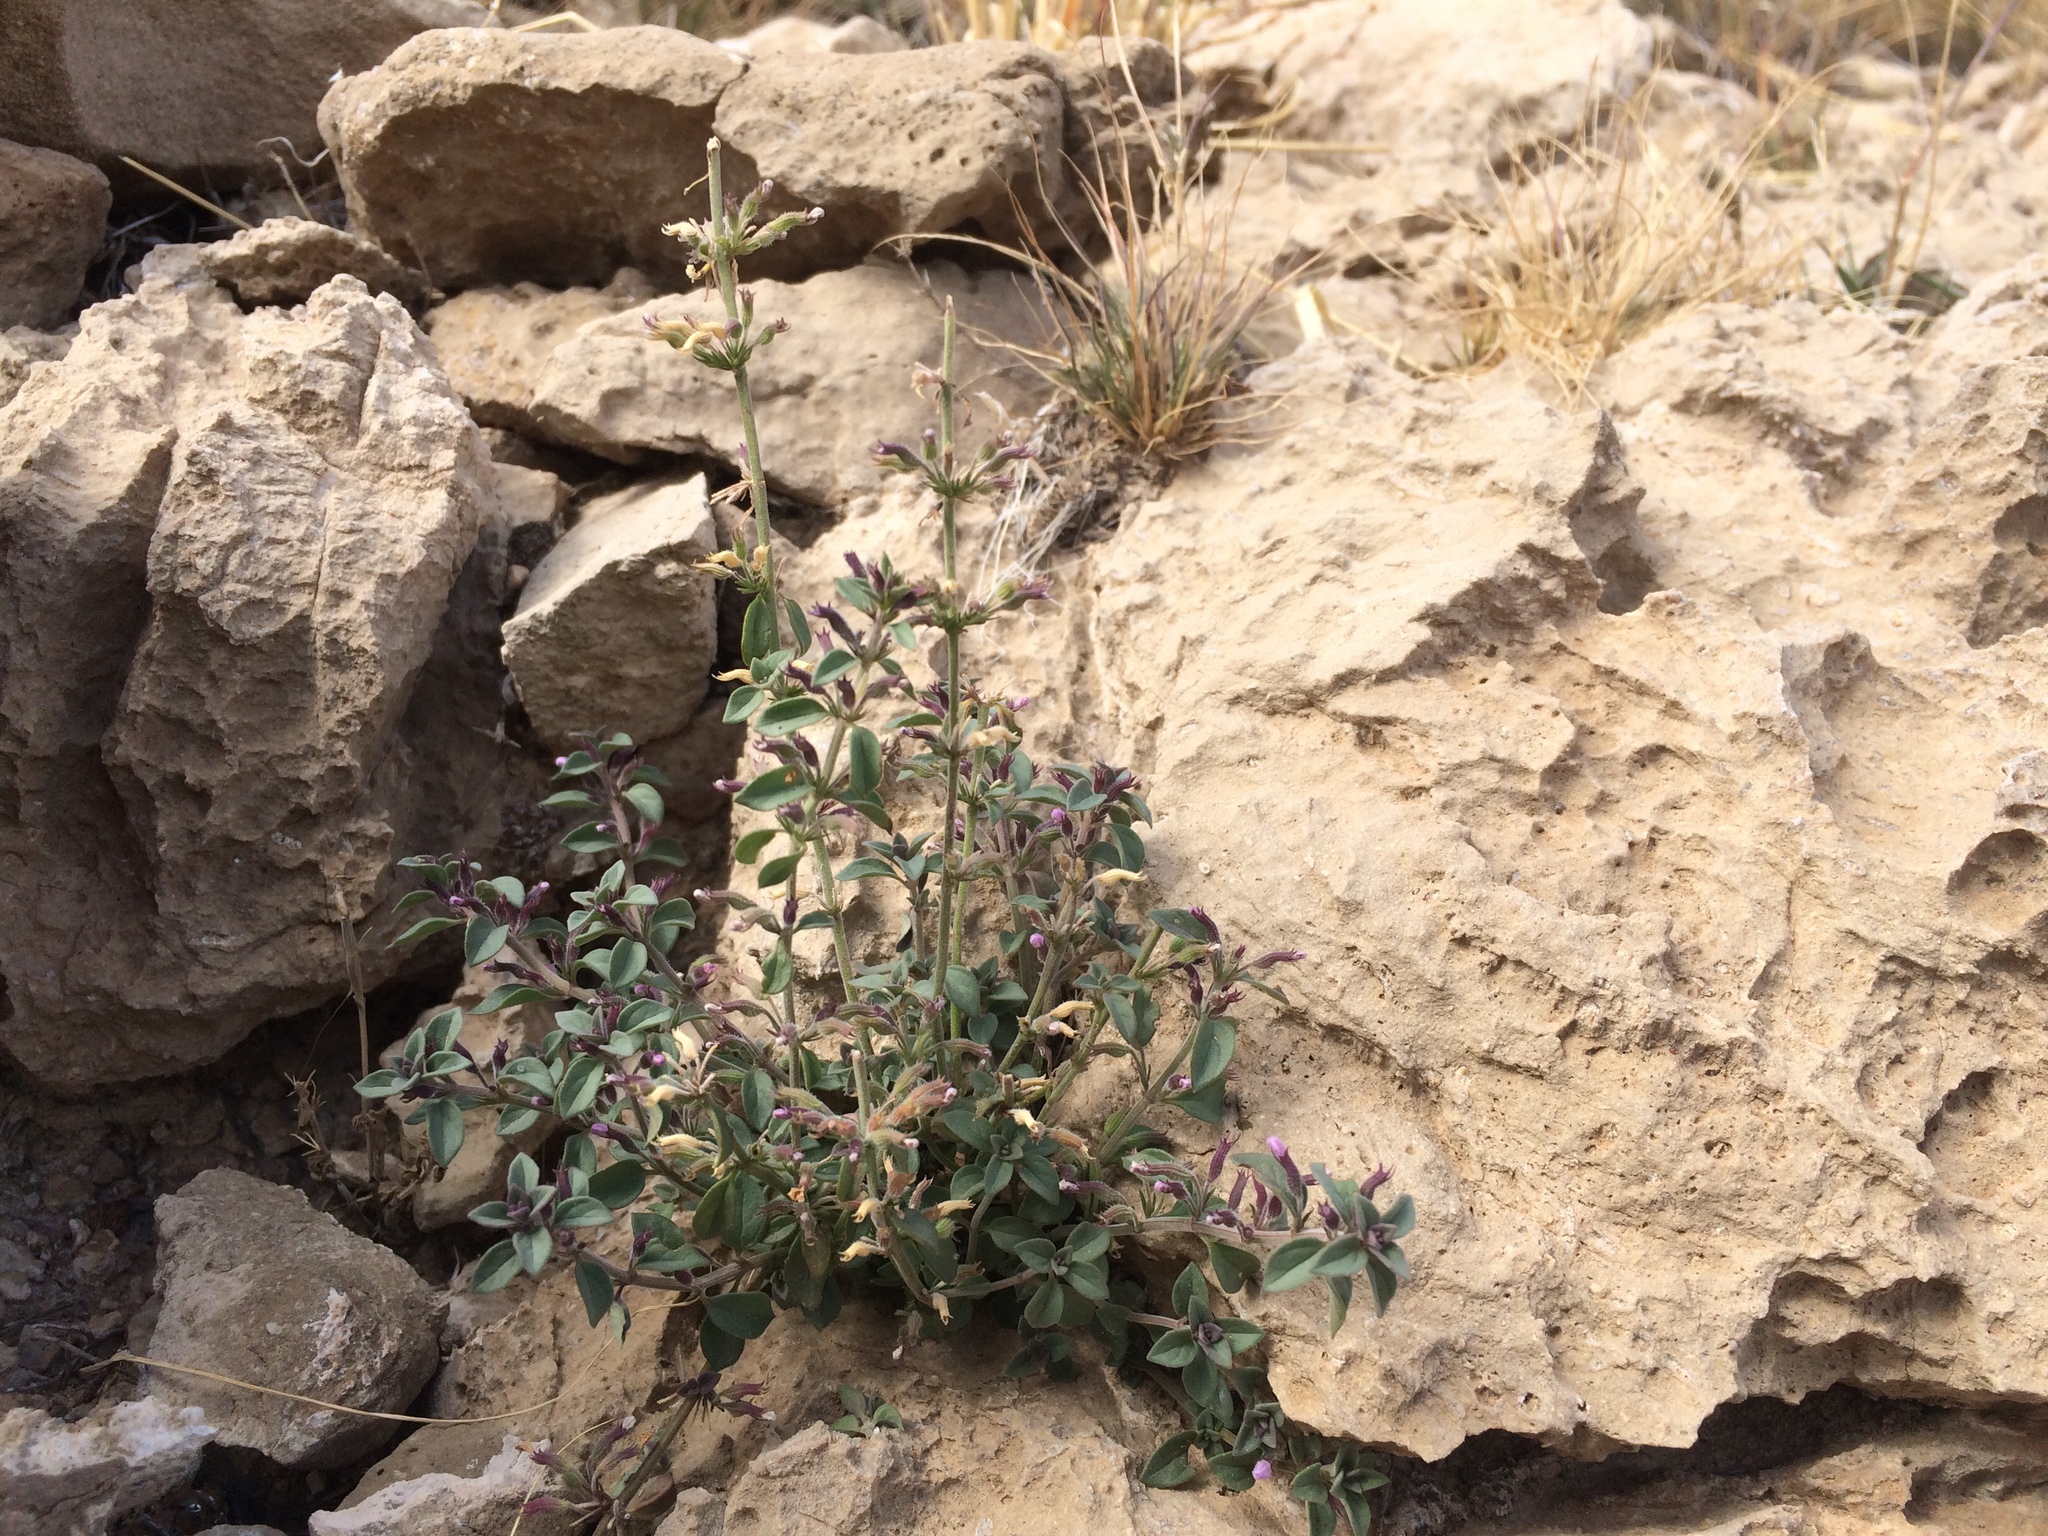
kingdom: Plantae
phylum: Tracheophyta
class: Magnoliopsida
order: Lamiales
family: Lamiaceae
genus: Hedeoma
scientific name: Hedeoma nana
